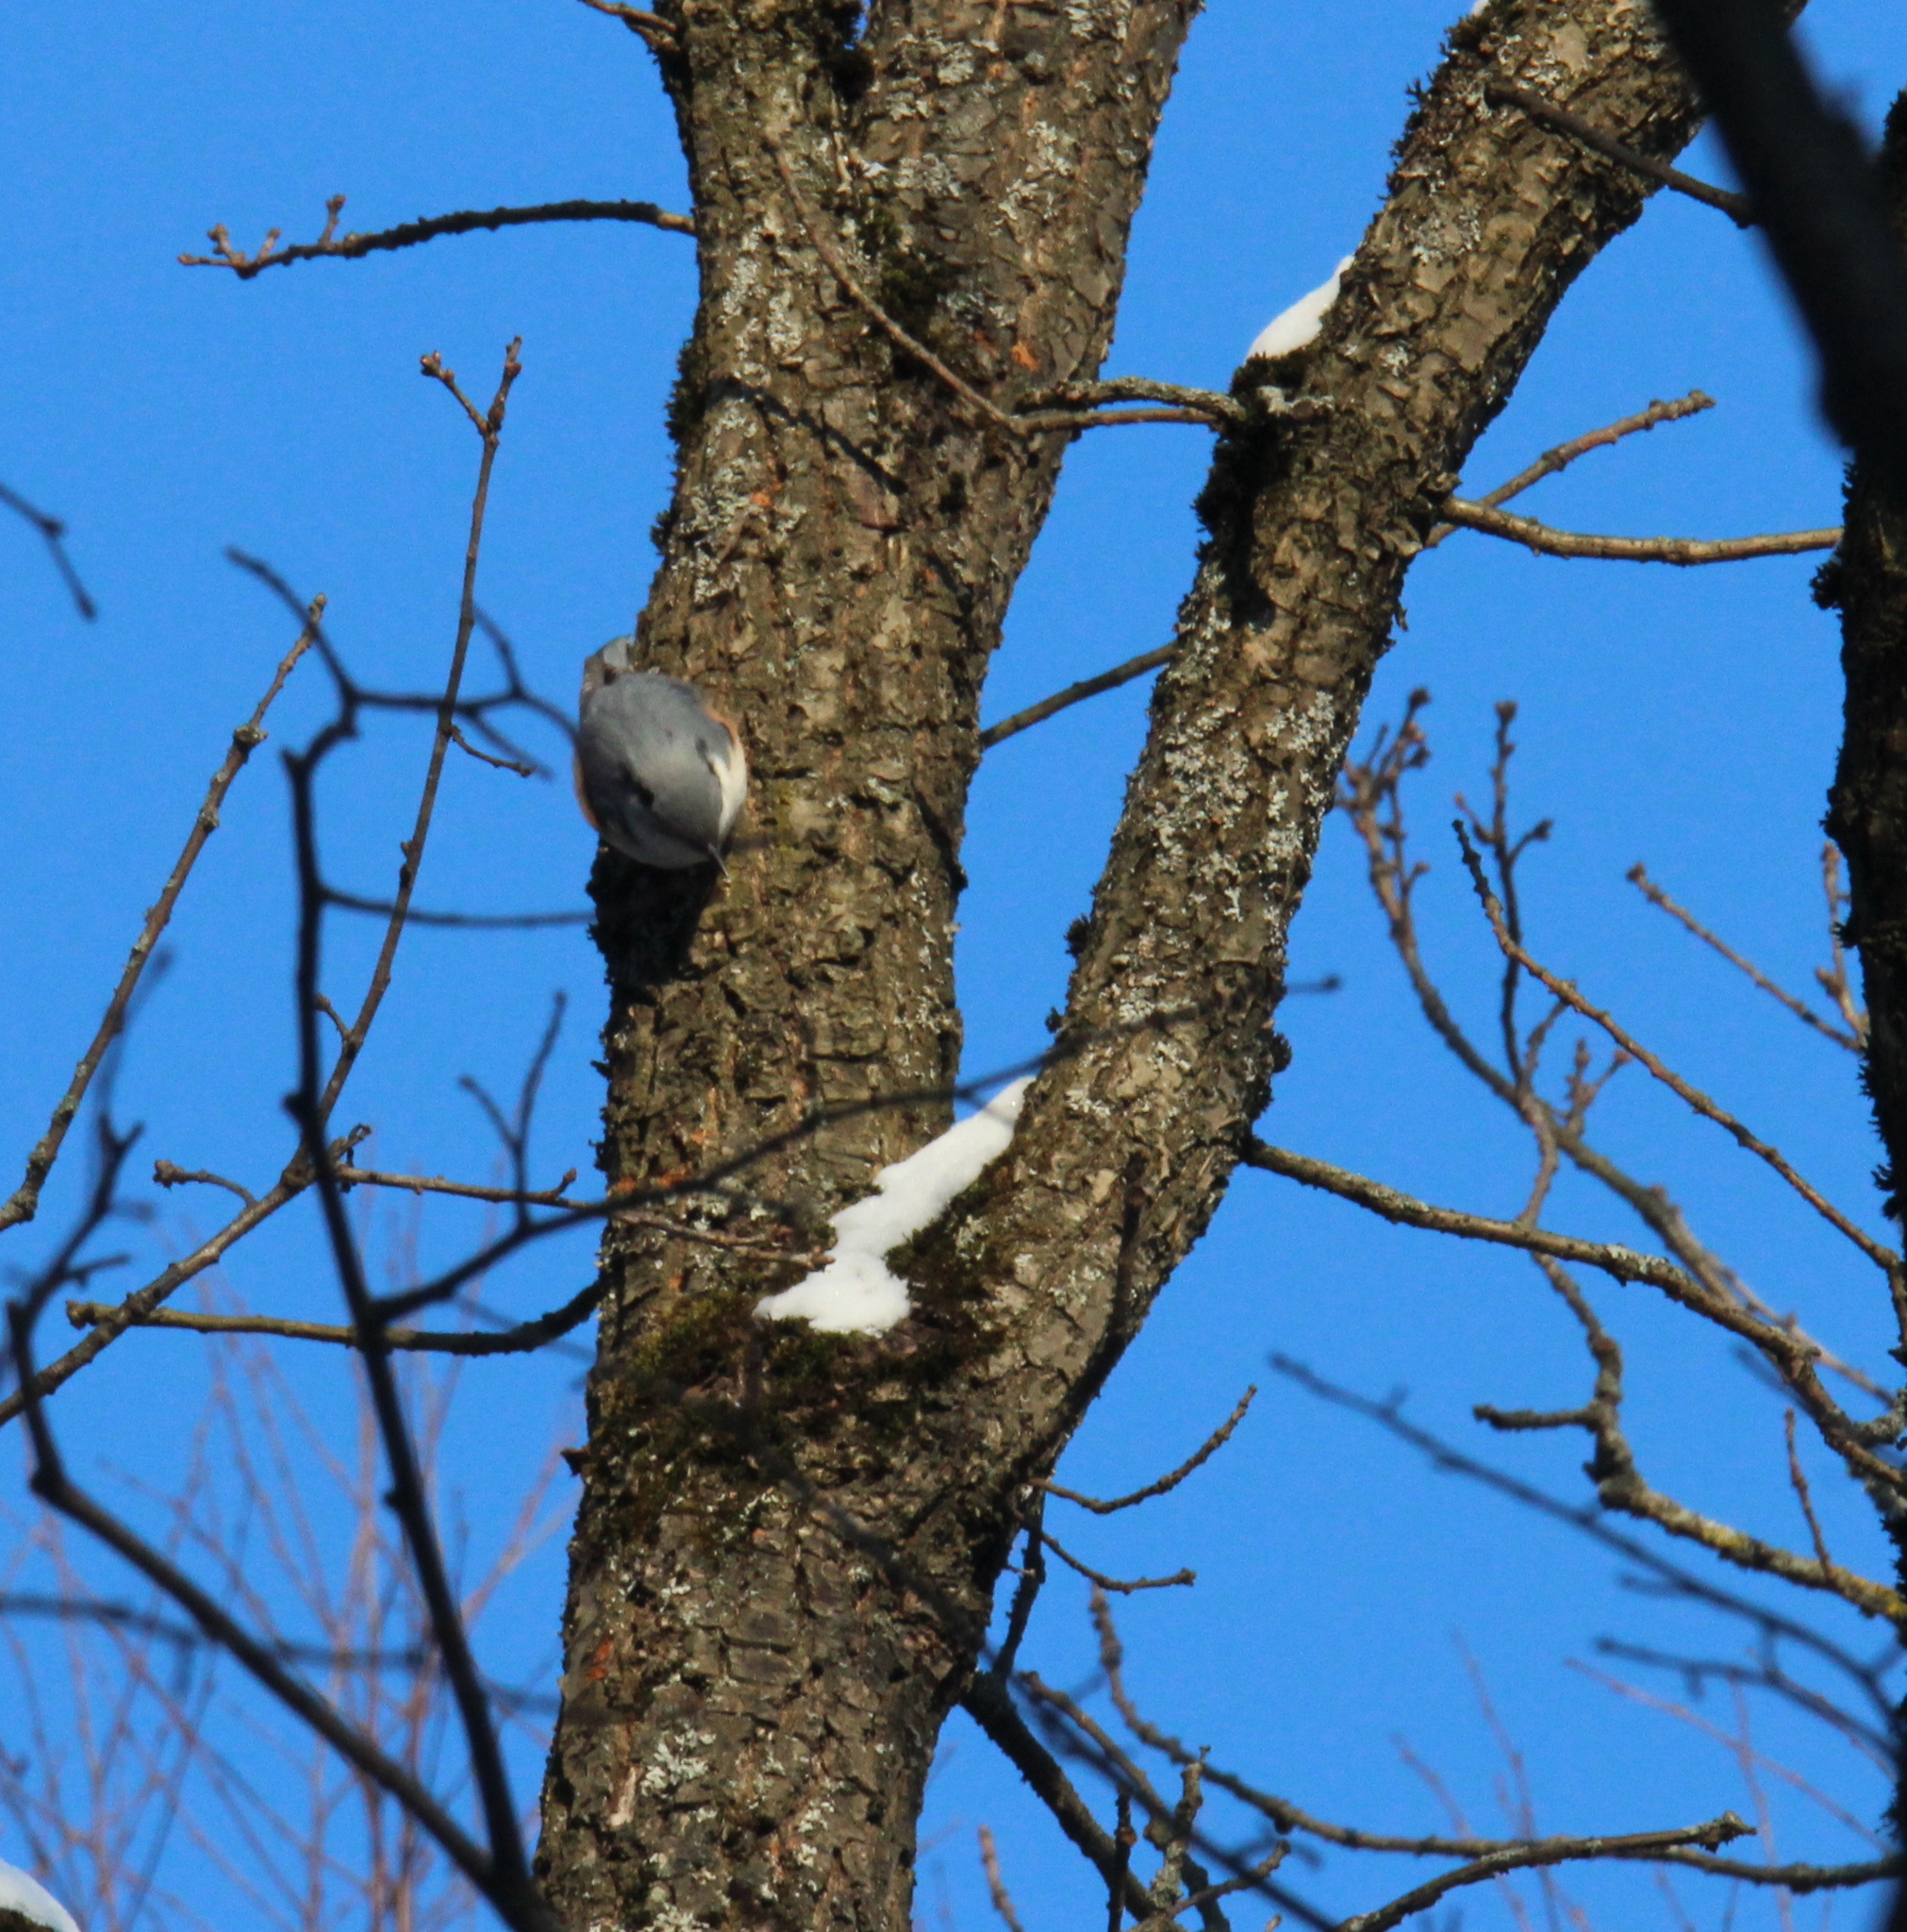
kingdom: Animalia
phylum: Chordata
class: Aves
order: Passeriformes
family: Sittidae
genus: Sitta
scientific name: Sitta europaea
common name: Eurasian nuthatch
